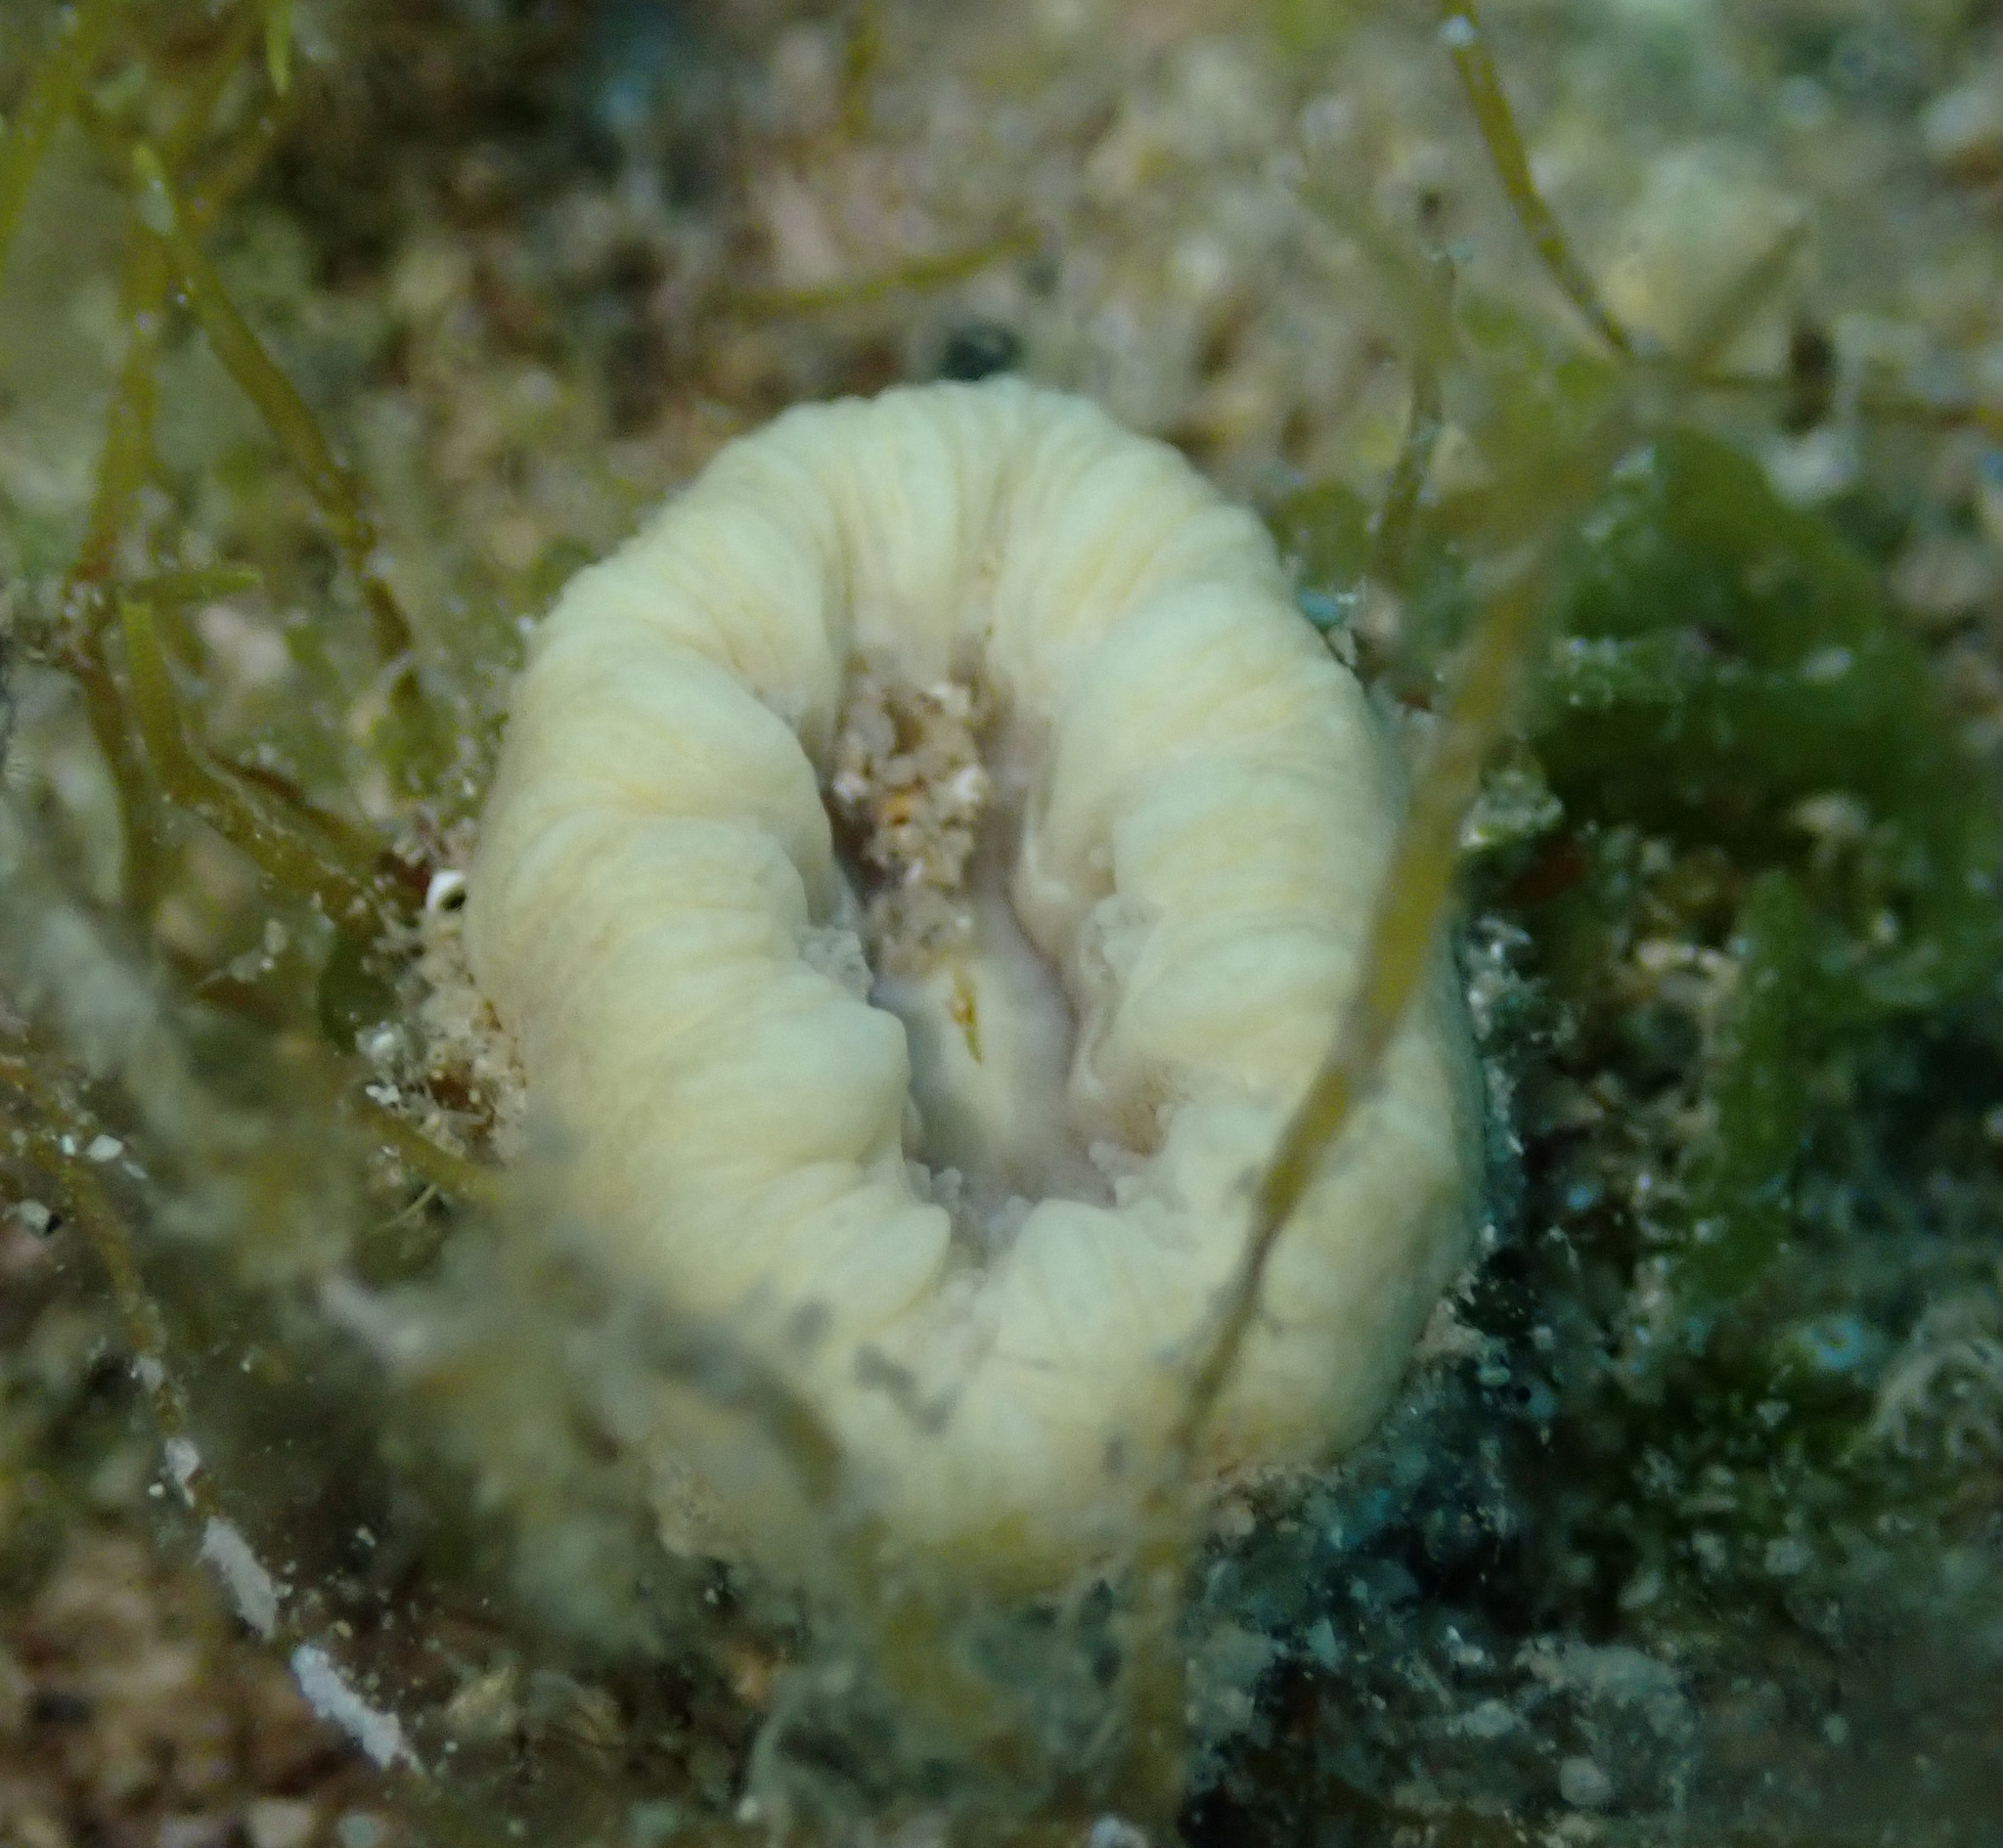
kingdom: Animalia
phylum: Cnidaria
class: Anthozoa
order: Scleractinia
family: Dendrophylliidae
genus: Balanophyllia
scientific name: Balanophyllia europaea
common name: Scarlet coral
